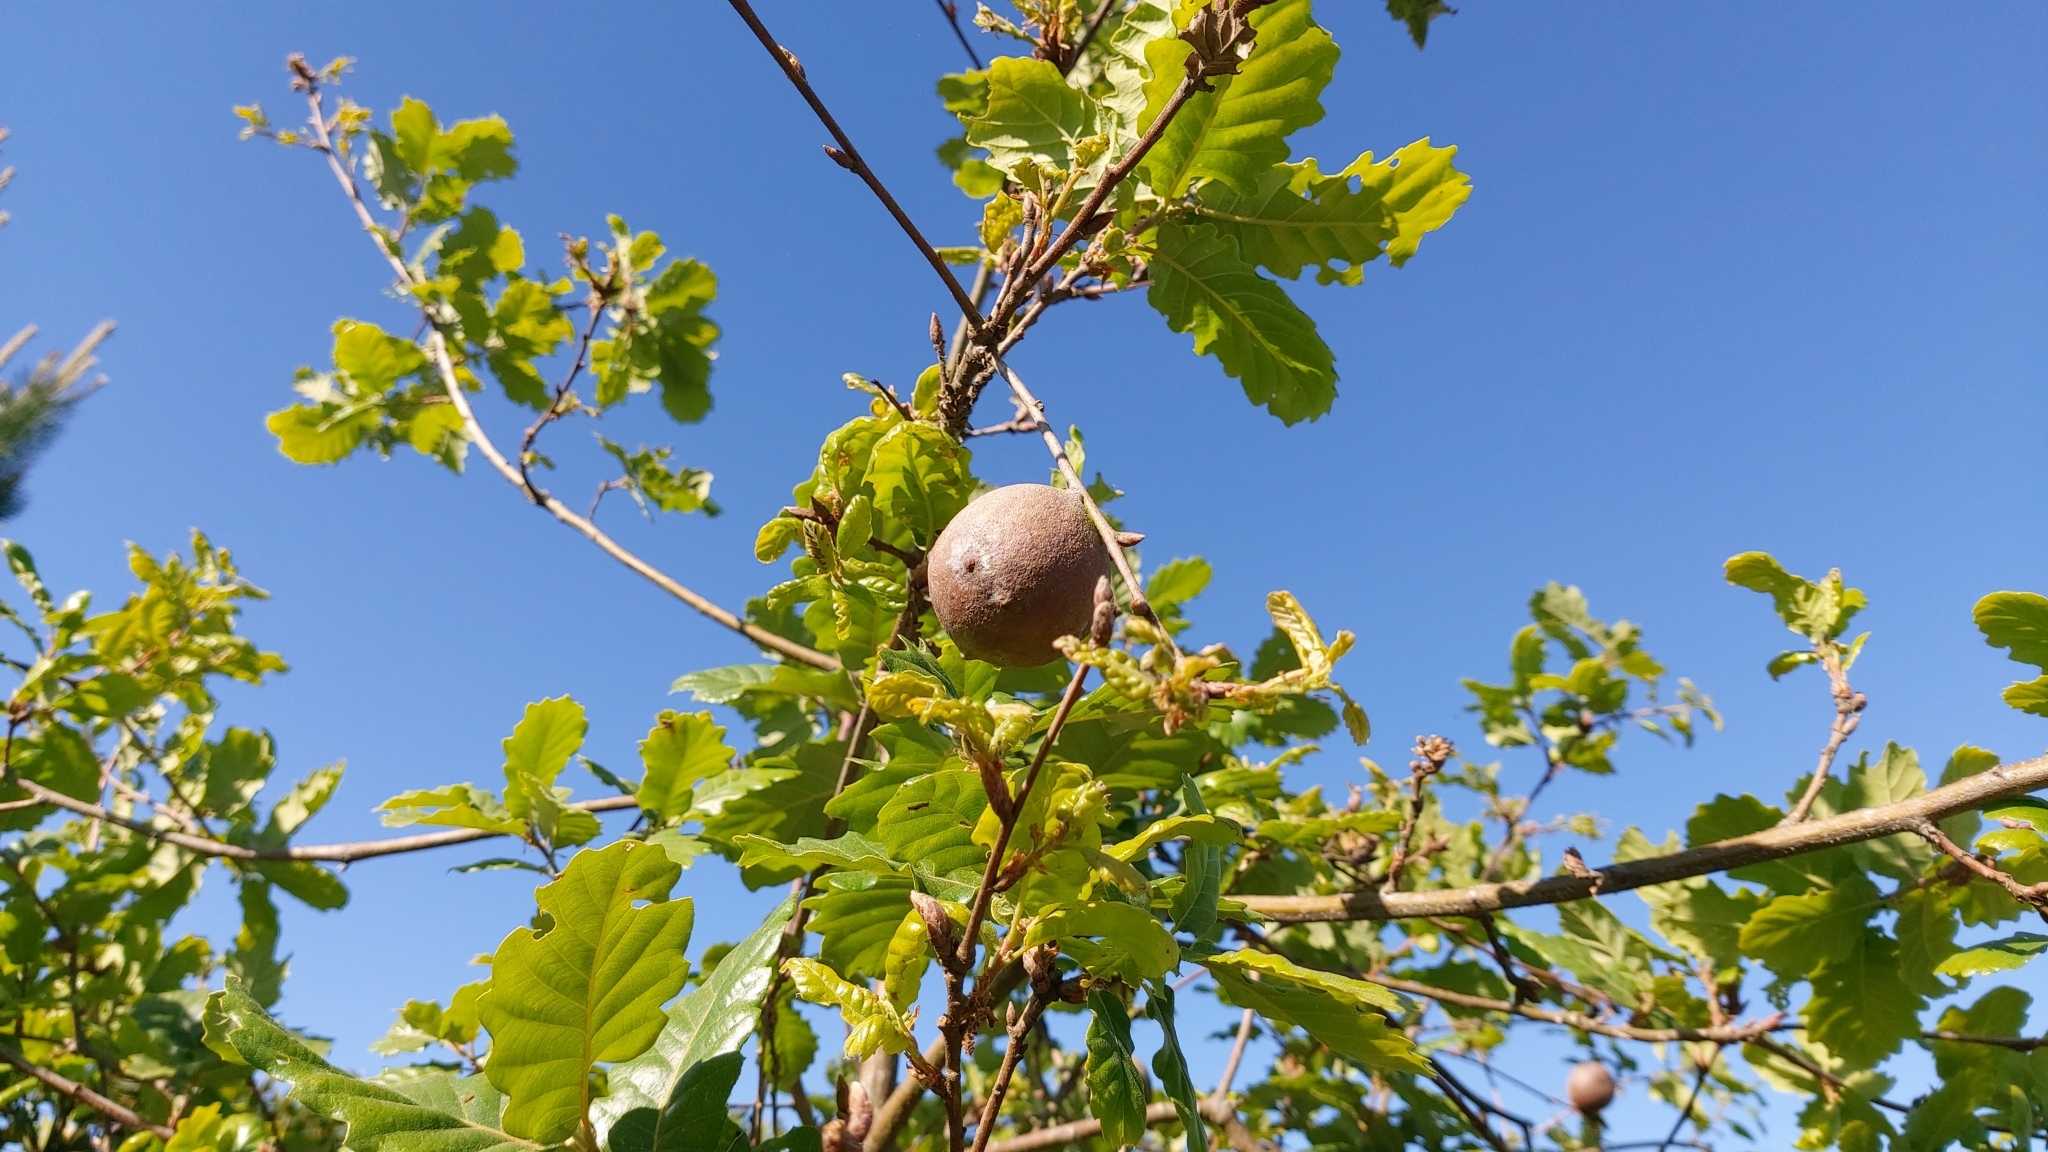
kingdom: Animalia
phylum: Arthropoda
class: Insecta
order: Hymenoptera
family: Cynipidae
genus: Andricus
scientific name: Andricus quercustozae
